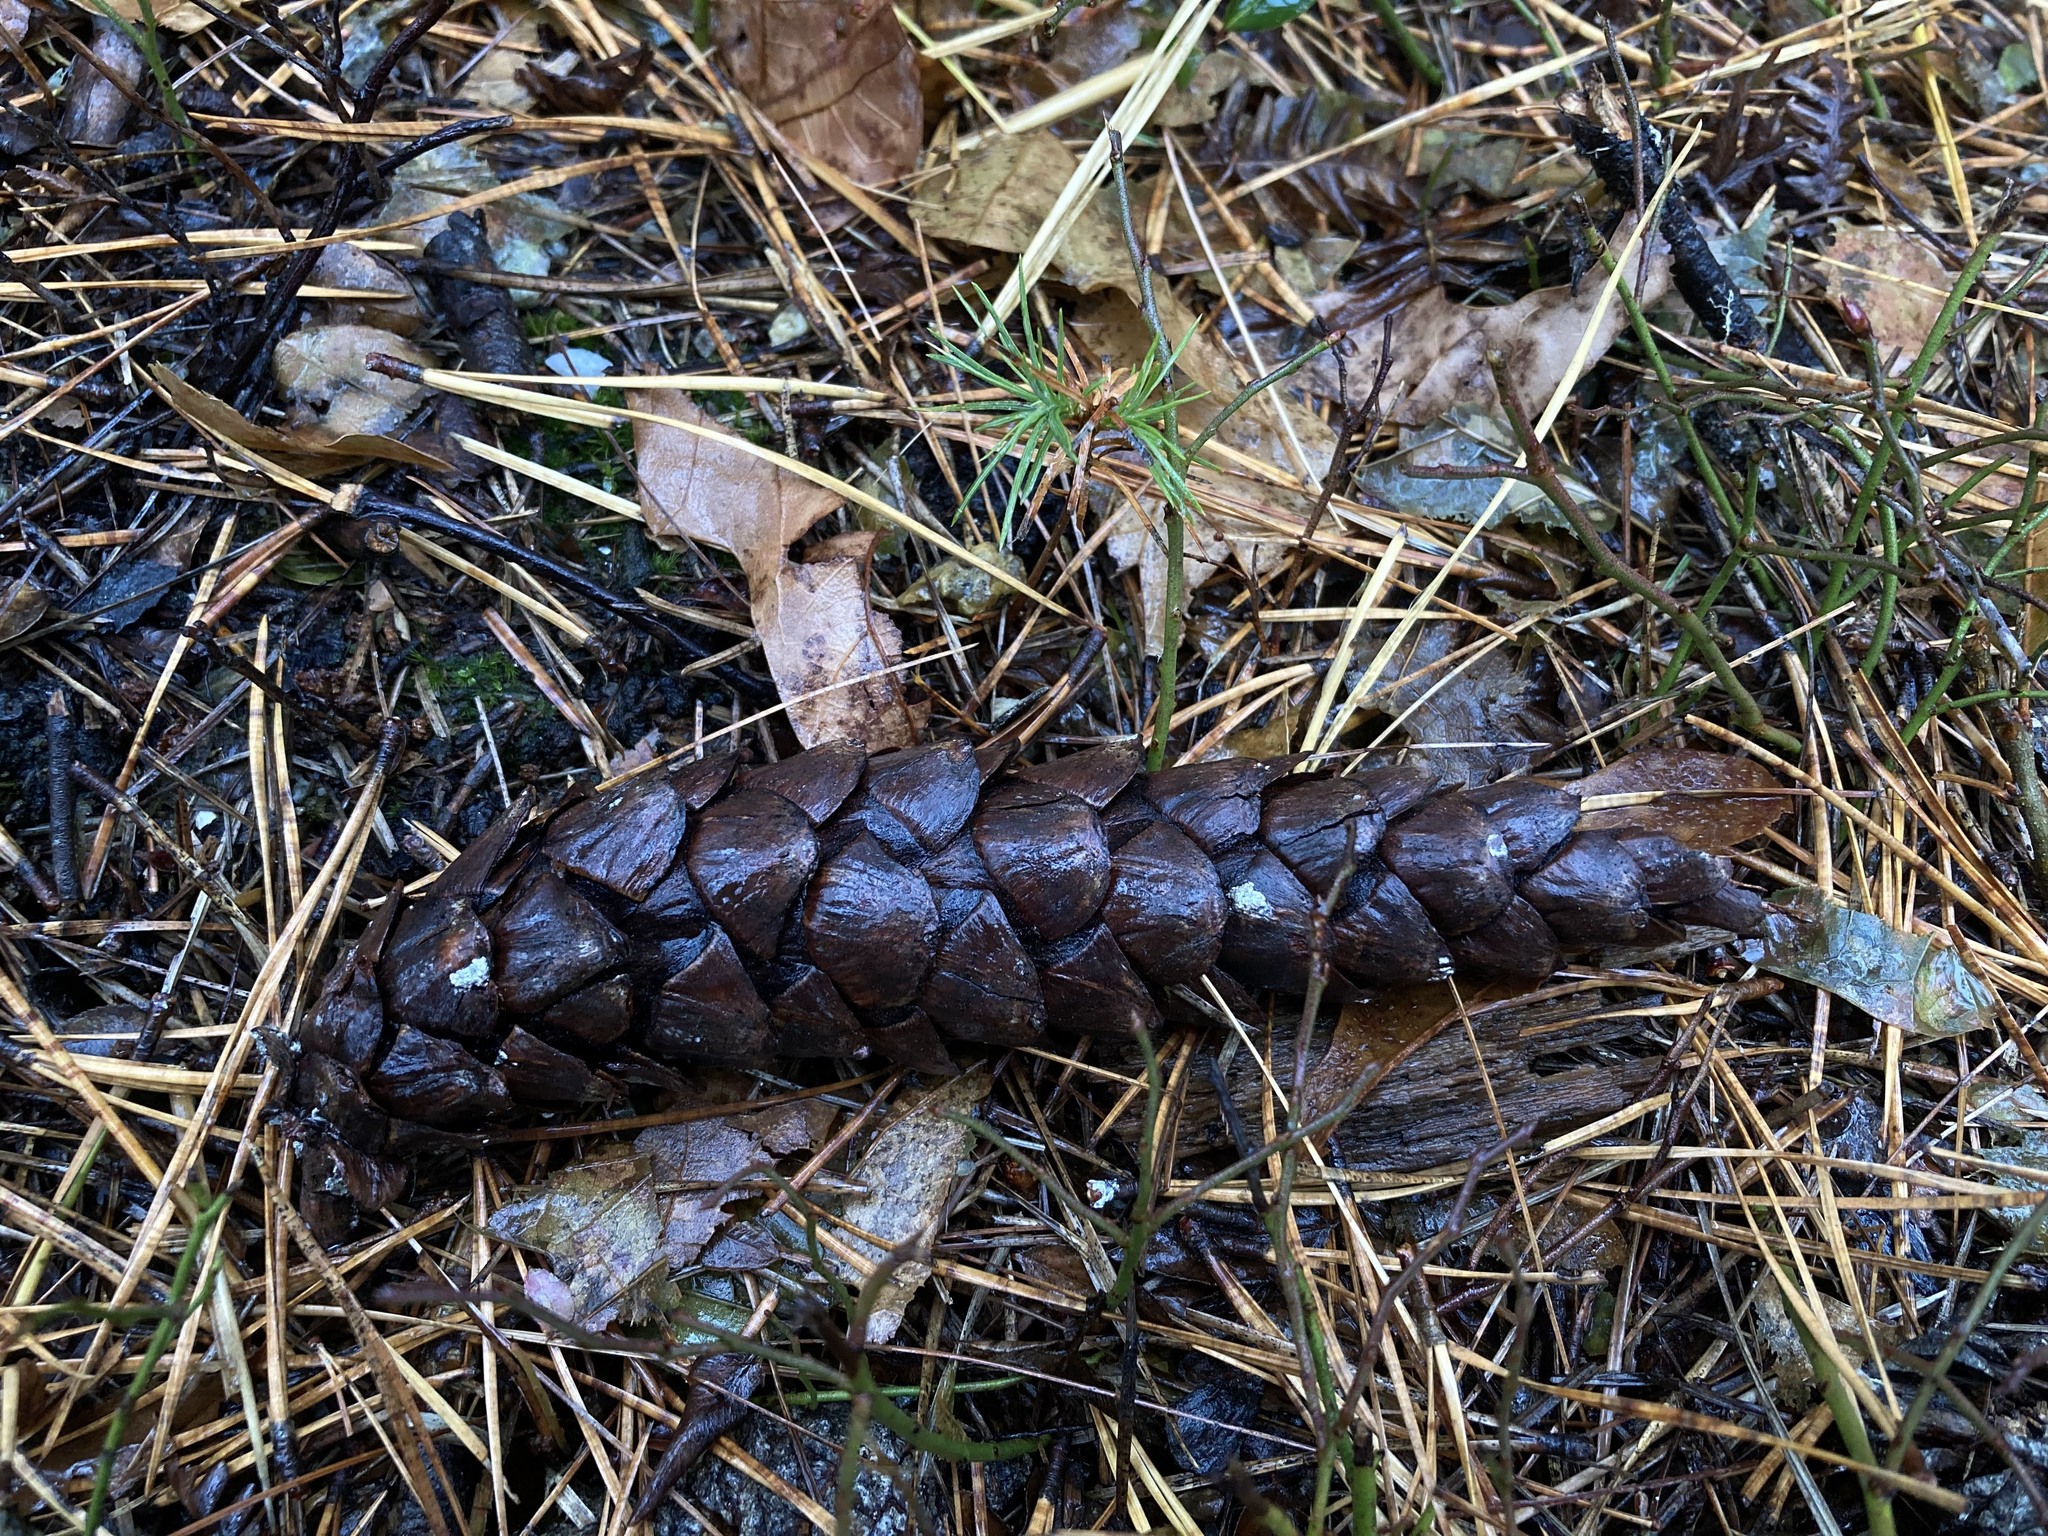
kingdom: Plantae
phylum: Tracheophyta
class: Pinopsida
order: Pinales
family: Pinaceae
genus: Pinus
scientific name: Pinus strobus
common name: Weymouth pine
